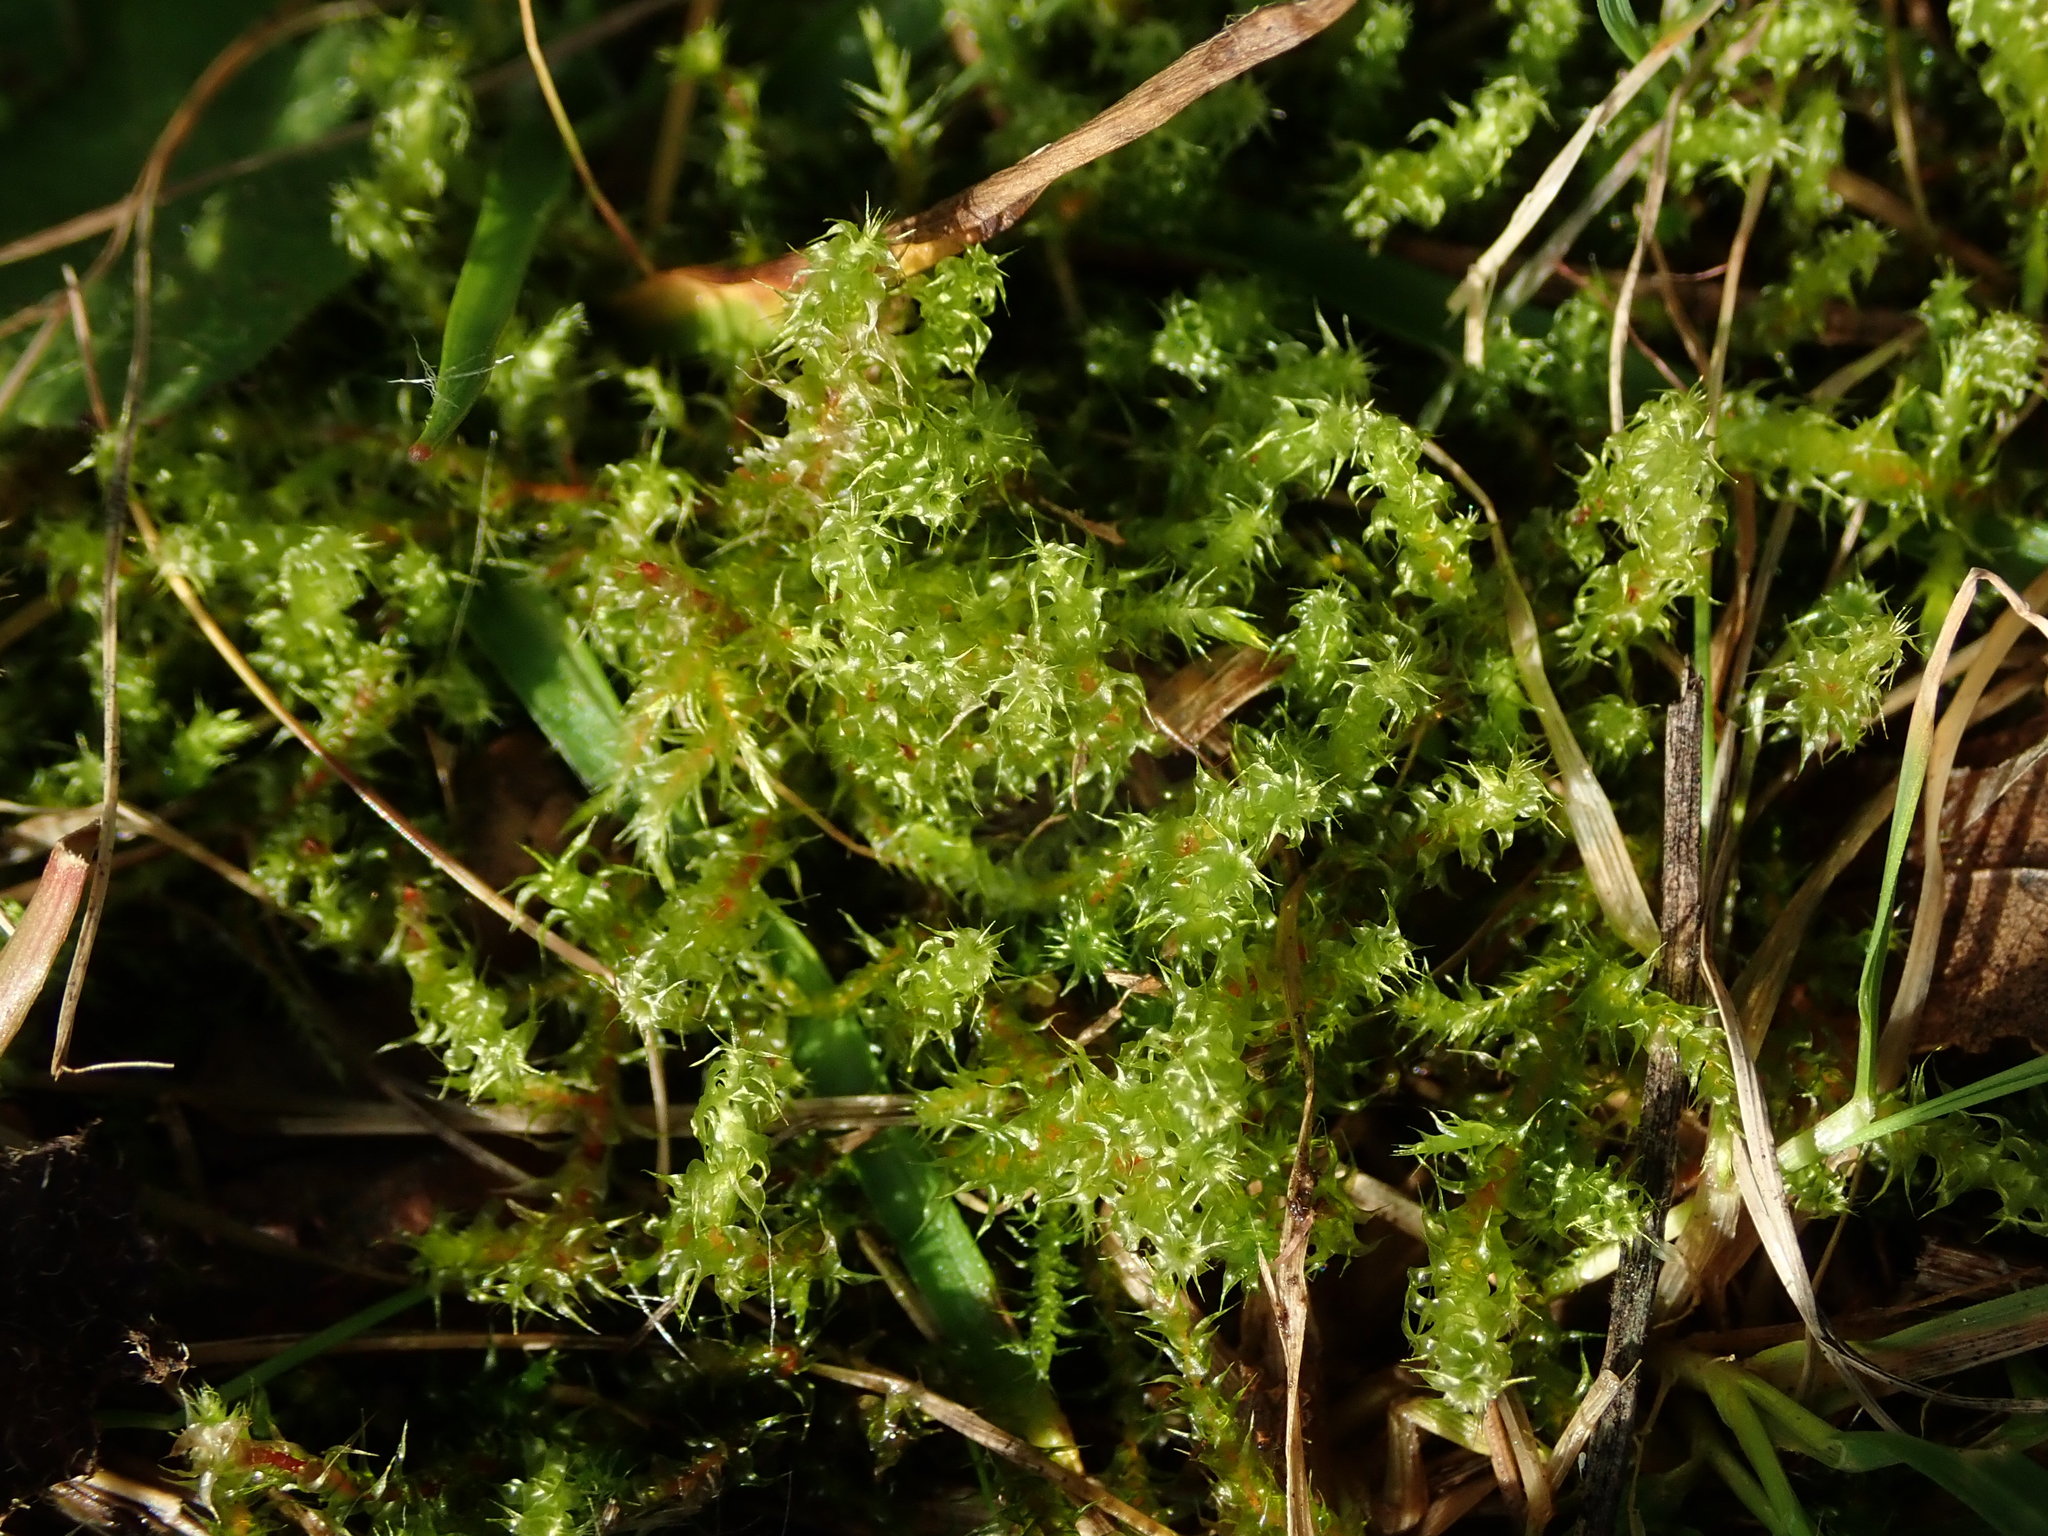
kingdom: Plantae
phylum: Bryophyta
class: Bryopsida
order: Hypnales
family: Hylocomiaceae
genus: Rhytidiadelphus
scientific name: Rhytidiadelphus squarrosus
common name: Springy turf-moss
